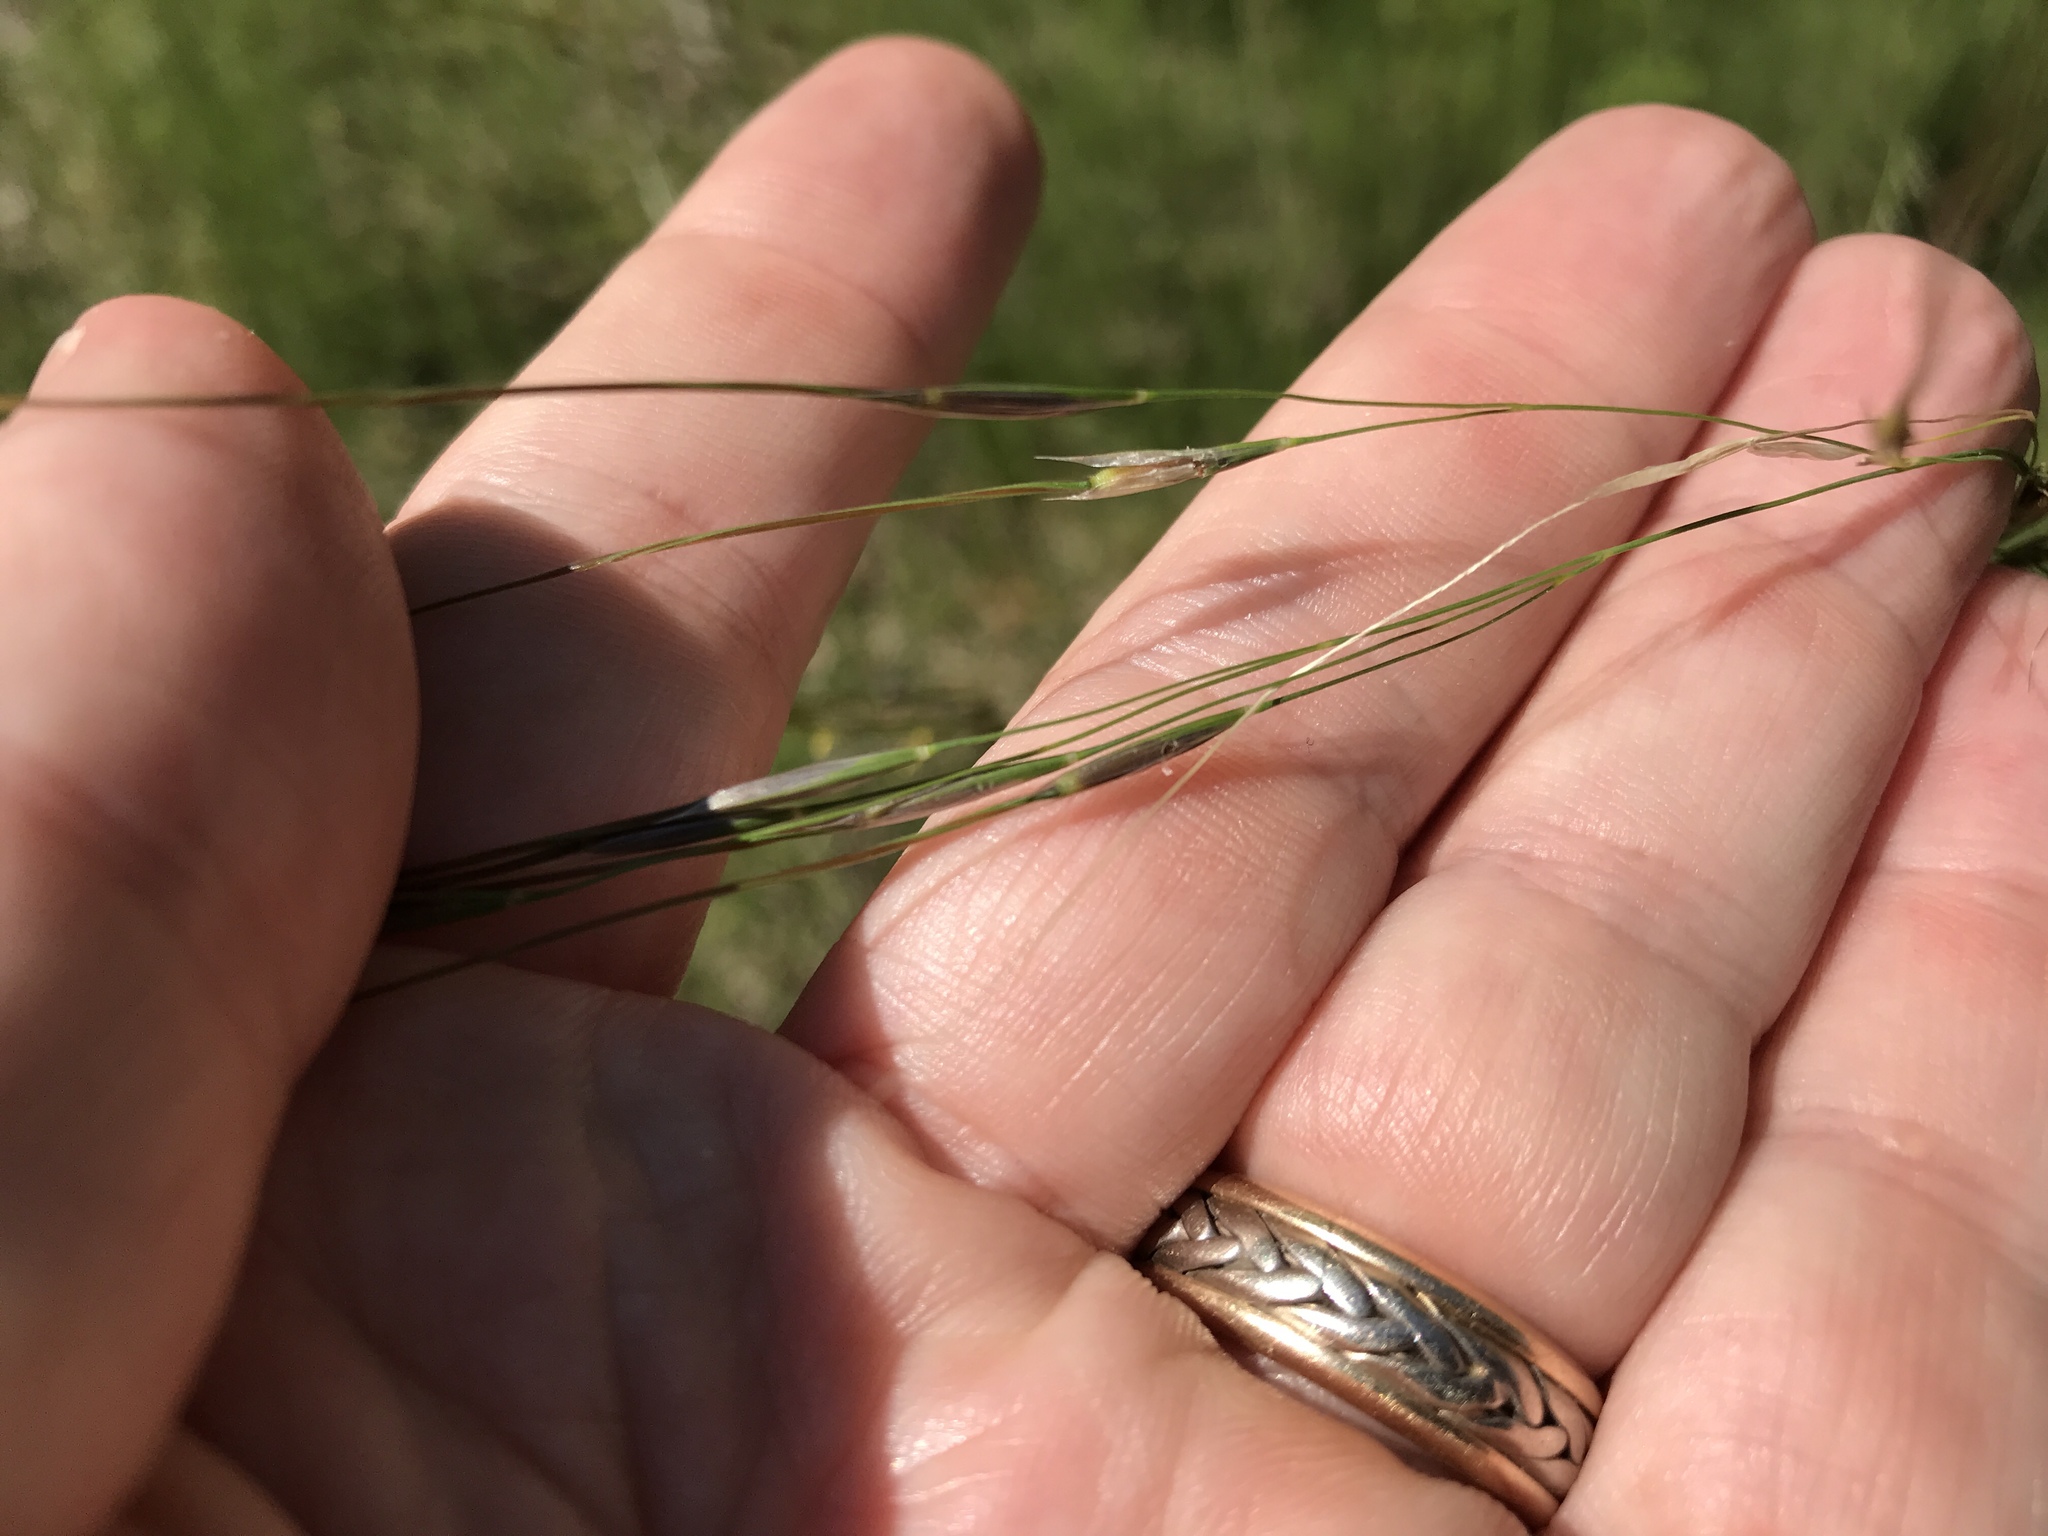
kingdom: Plantae
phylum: Tracheophyta
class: Liliopsida
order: Poales
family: Poaceae
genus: Piptochaetium
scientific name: Piptochaetium avenaceum
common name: Black bunchgrass
